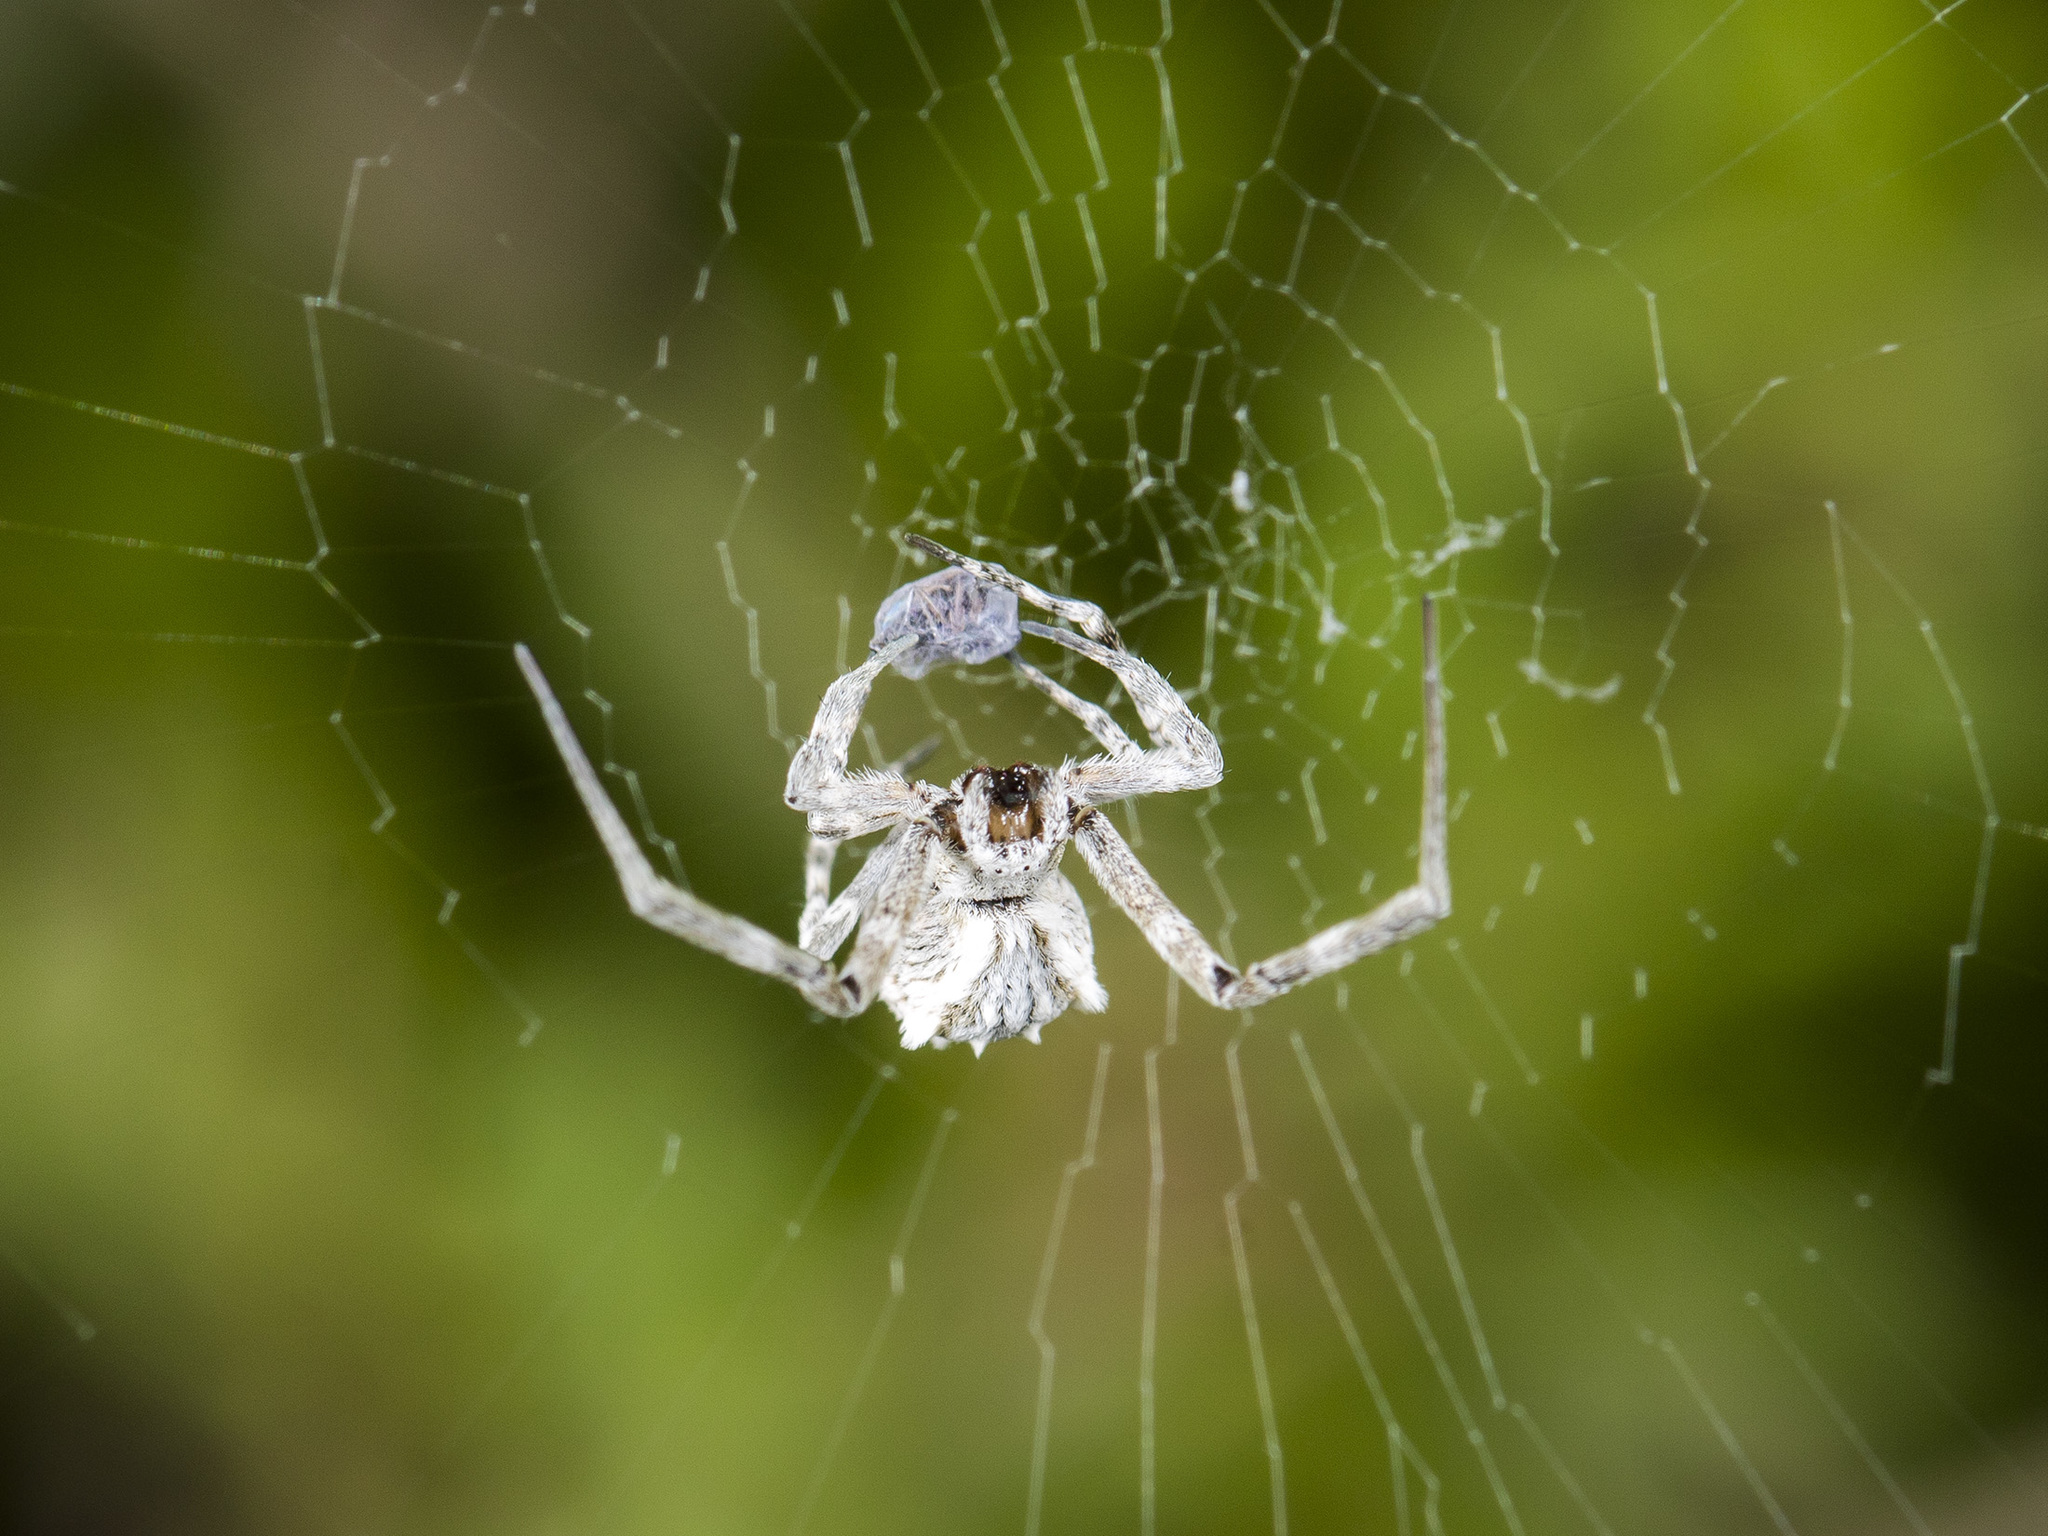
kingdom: Animalia
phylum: Arthropoda
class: Arachnida
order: Araneae
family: Uloboridae
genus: Uloborus
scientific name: Uloborus walckenaerius
